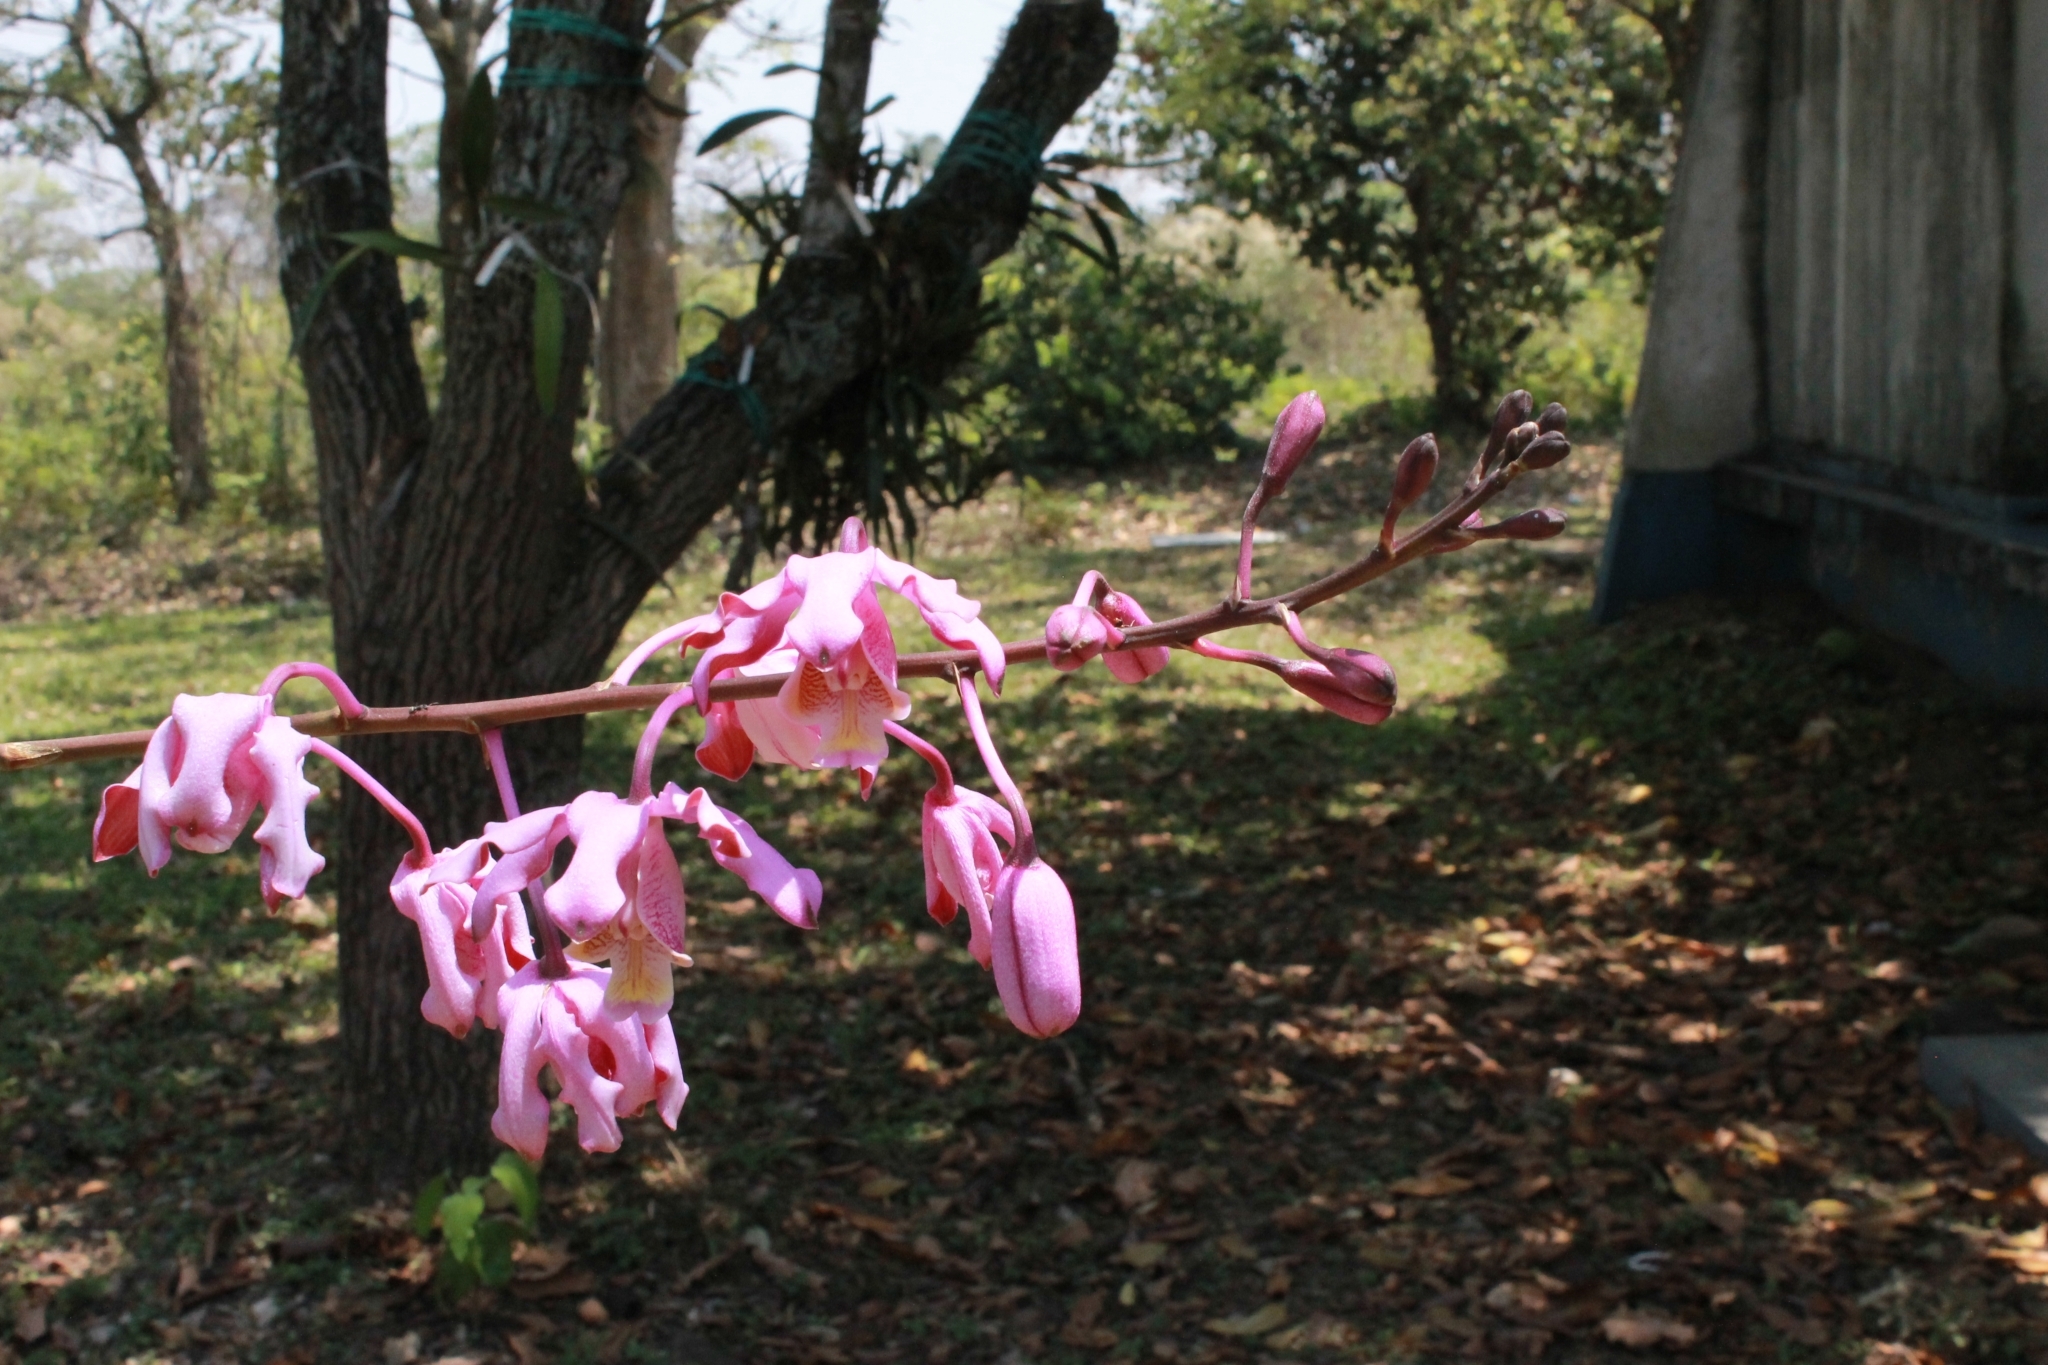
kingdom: Plantae
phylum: Tracheophyta
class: Liliopsida
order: Asparagales
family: Orchidaceae
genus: Myrmecophila
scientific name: Myrmecophila grandiflora
